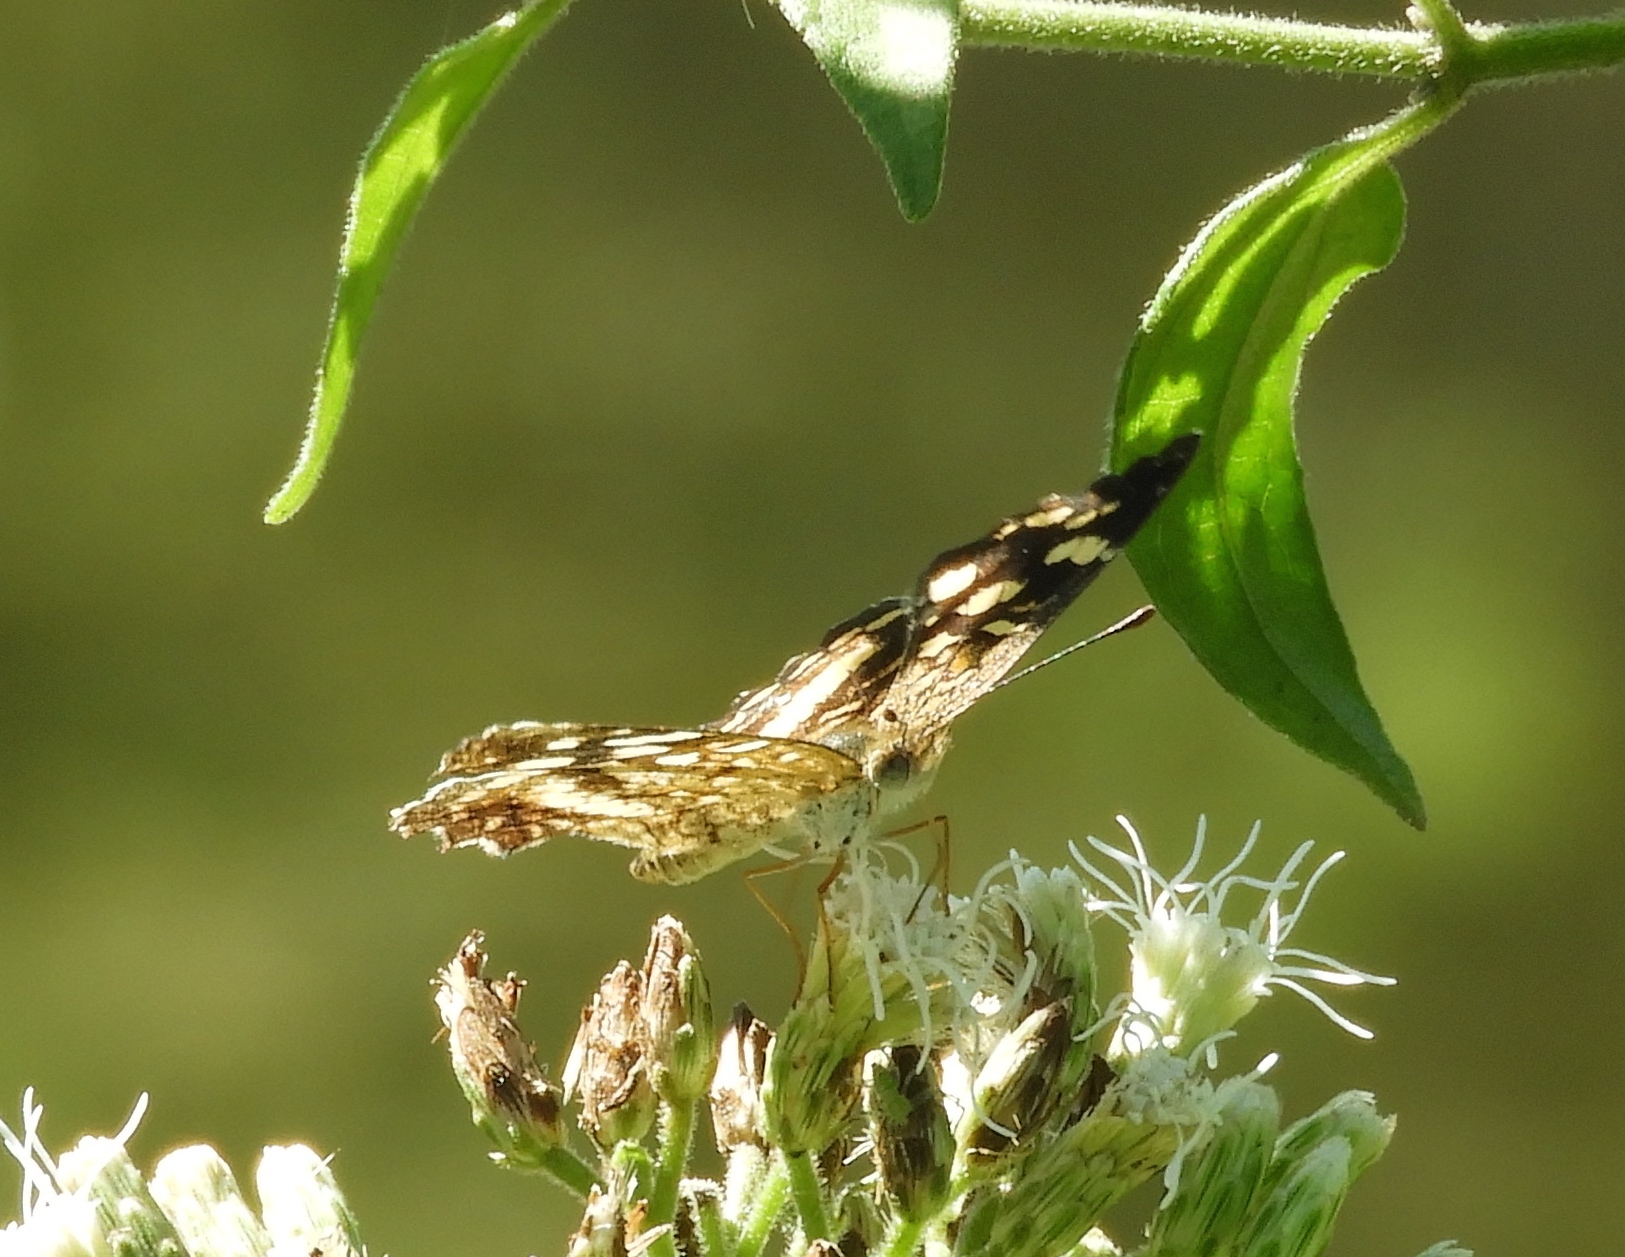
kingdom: Animalia
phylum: Arthropoda
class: Insecta
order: Lepidoptera
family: Nymphalidae
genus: Anthanassa
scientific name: Anthanassa tulcis
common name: Pale-banded crescent
